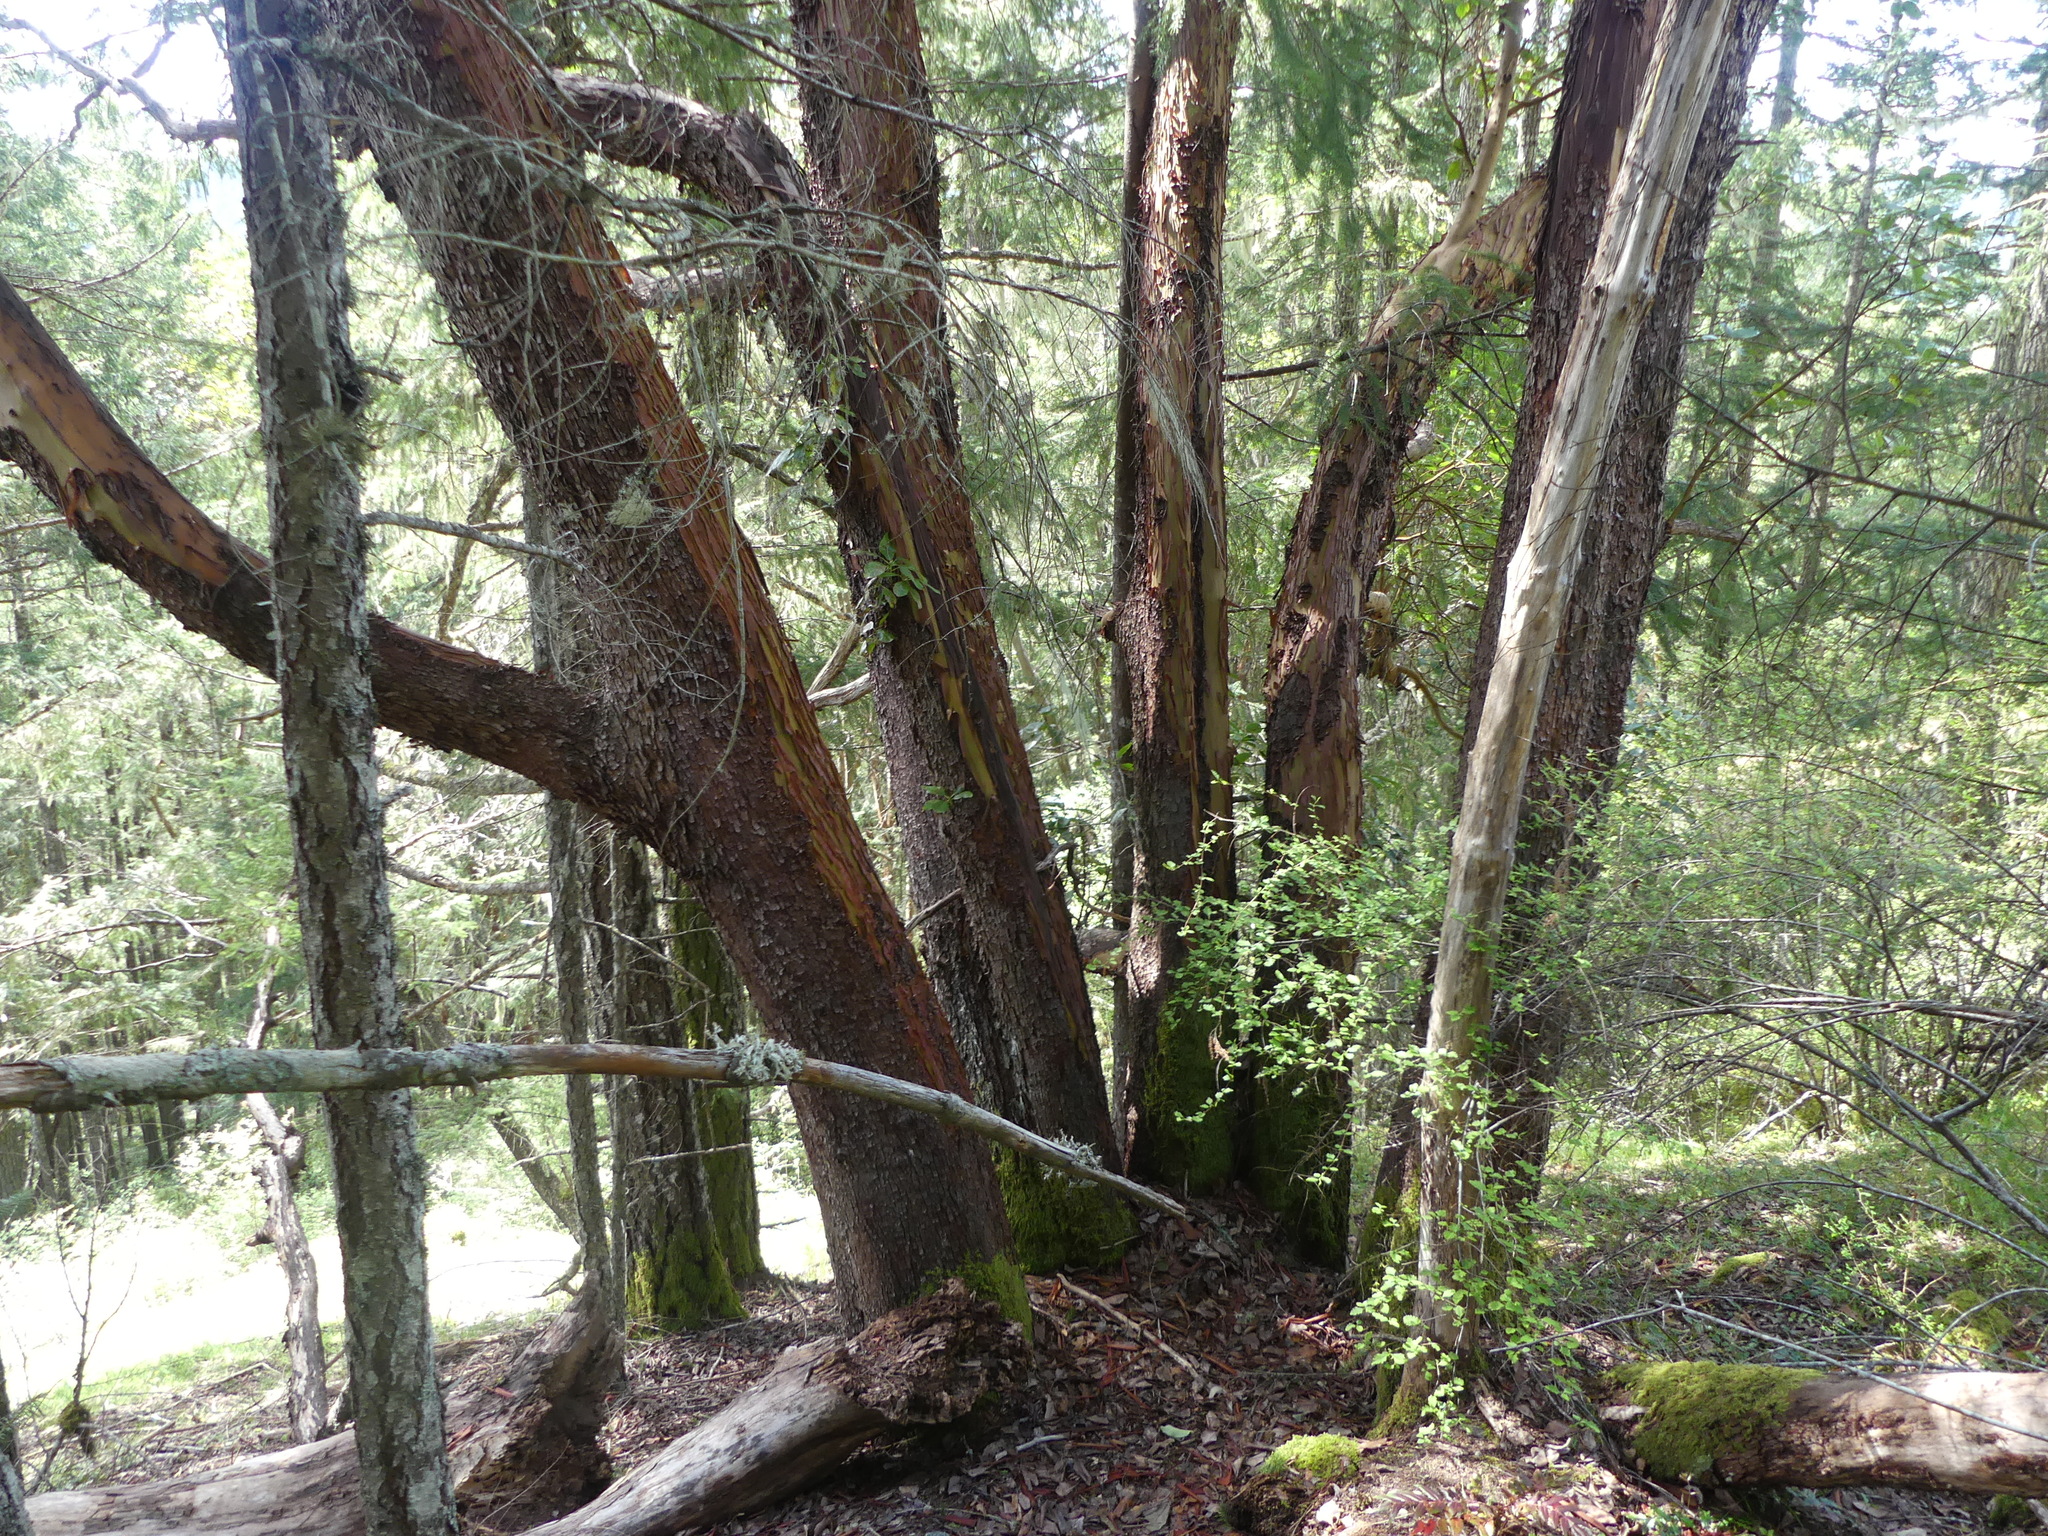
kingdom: Plantae
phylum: Tracheophyta
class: Magnoliopsida
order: Ericales
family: Ericaceae
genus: Arbutus
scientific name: Arbutus menziesii
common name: Pacific madrone
